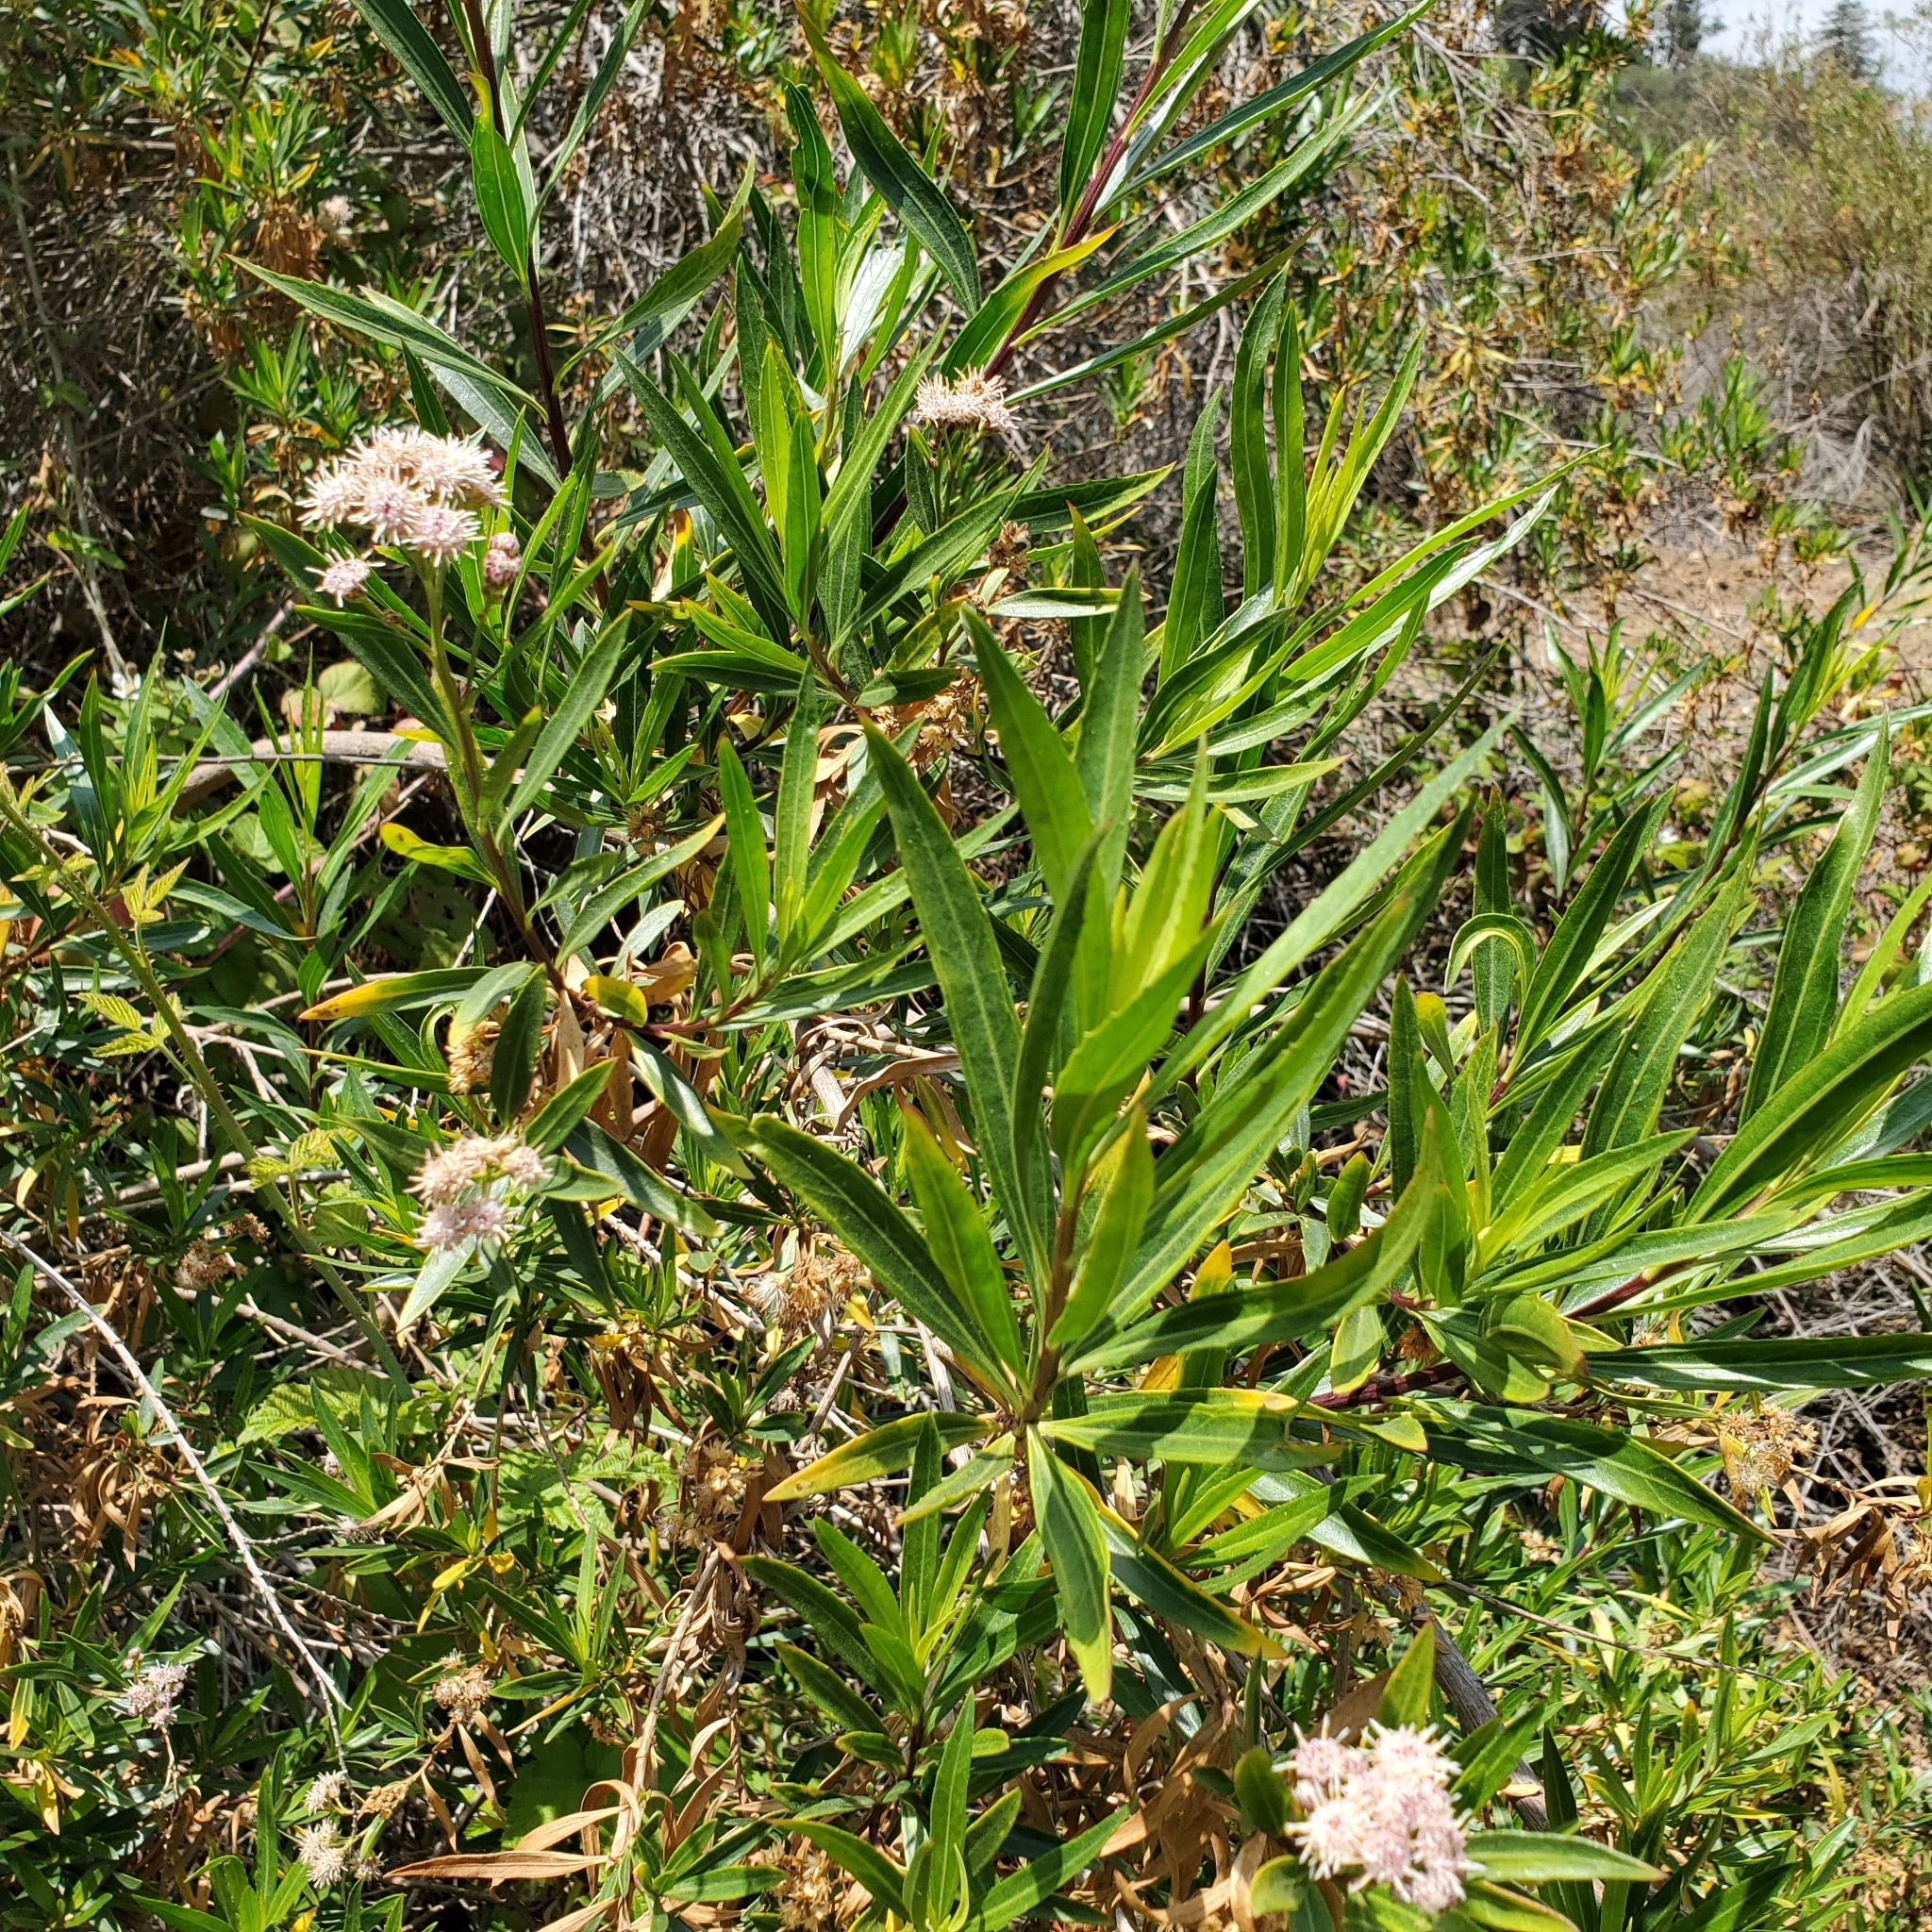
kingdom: Plantae
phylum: Tracheophyta
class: Magnoliopsida
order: Asterales
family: Asteraceae
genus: Baccharis
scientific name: Baccharis salicifolia
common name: Sticky baccharis
